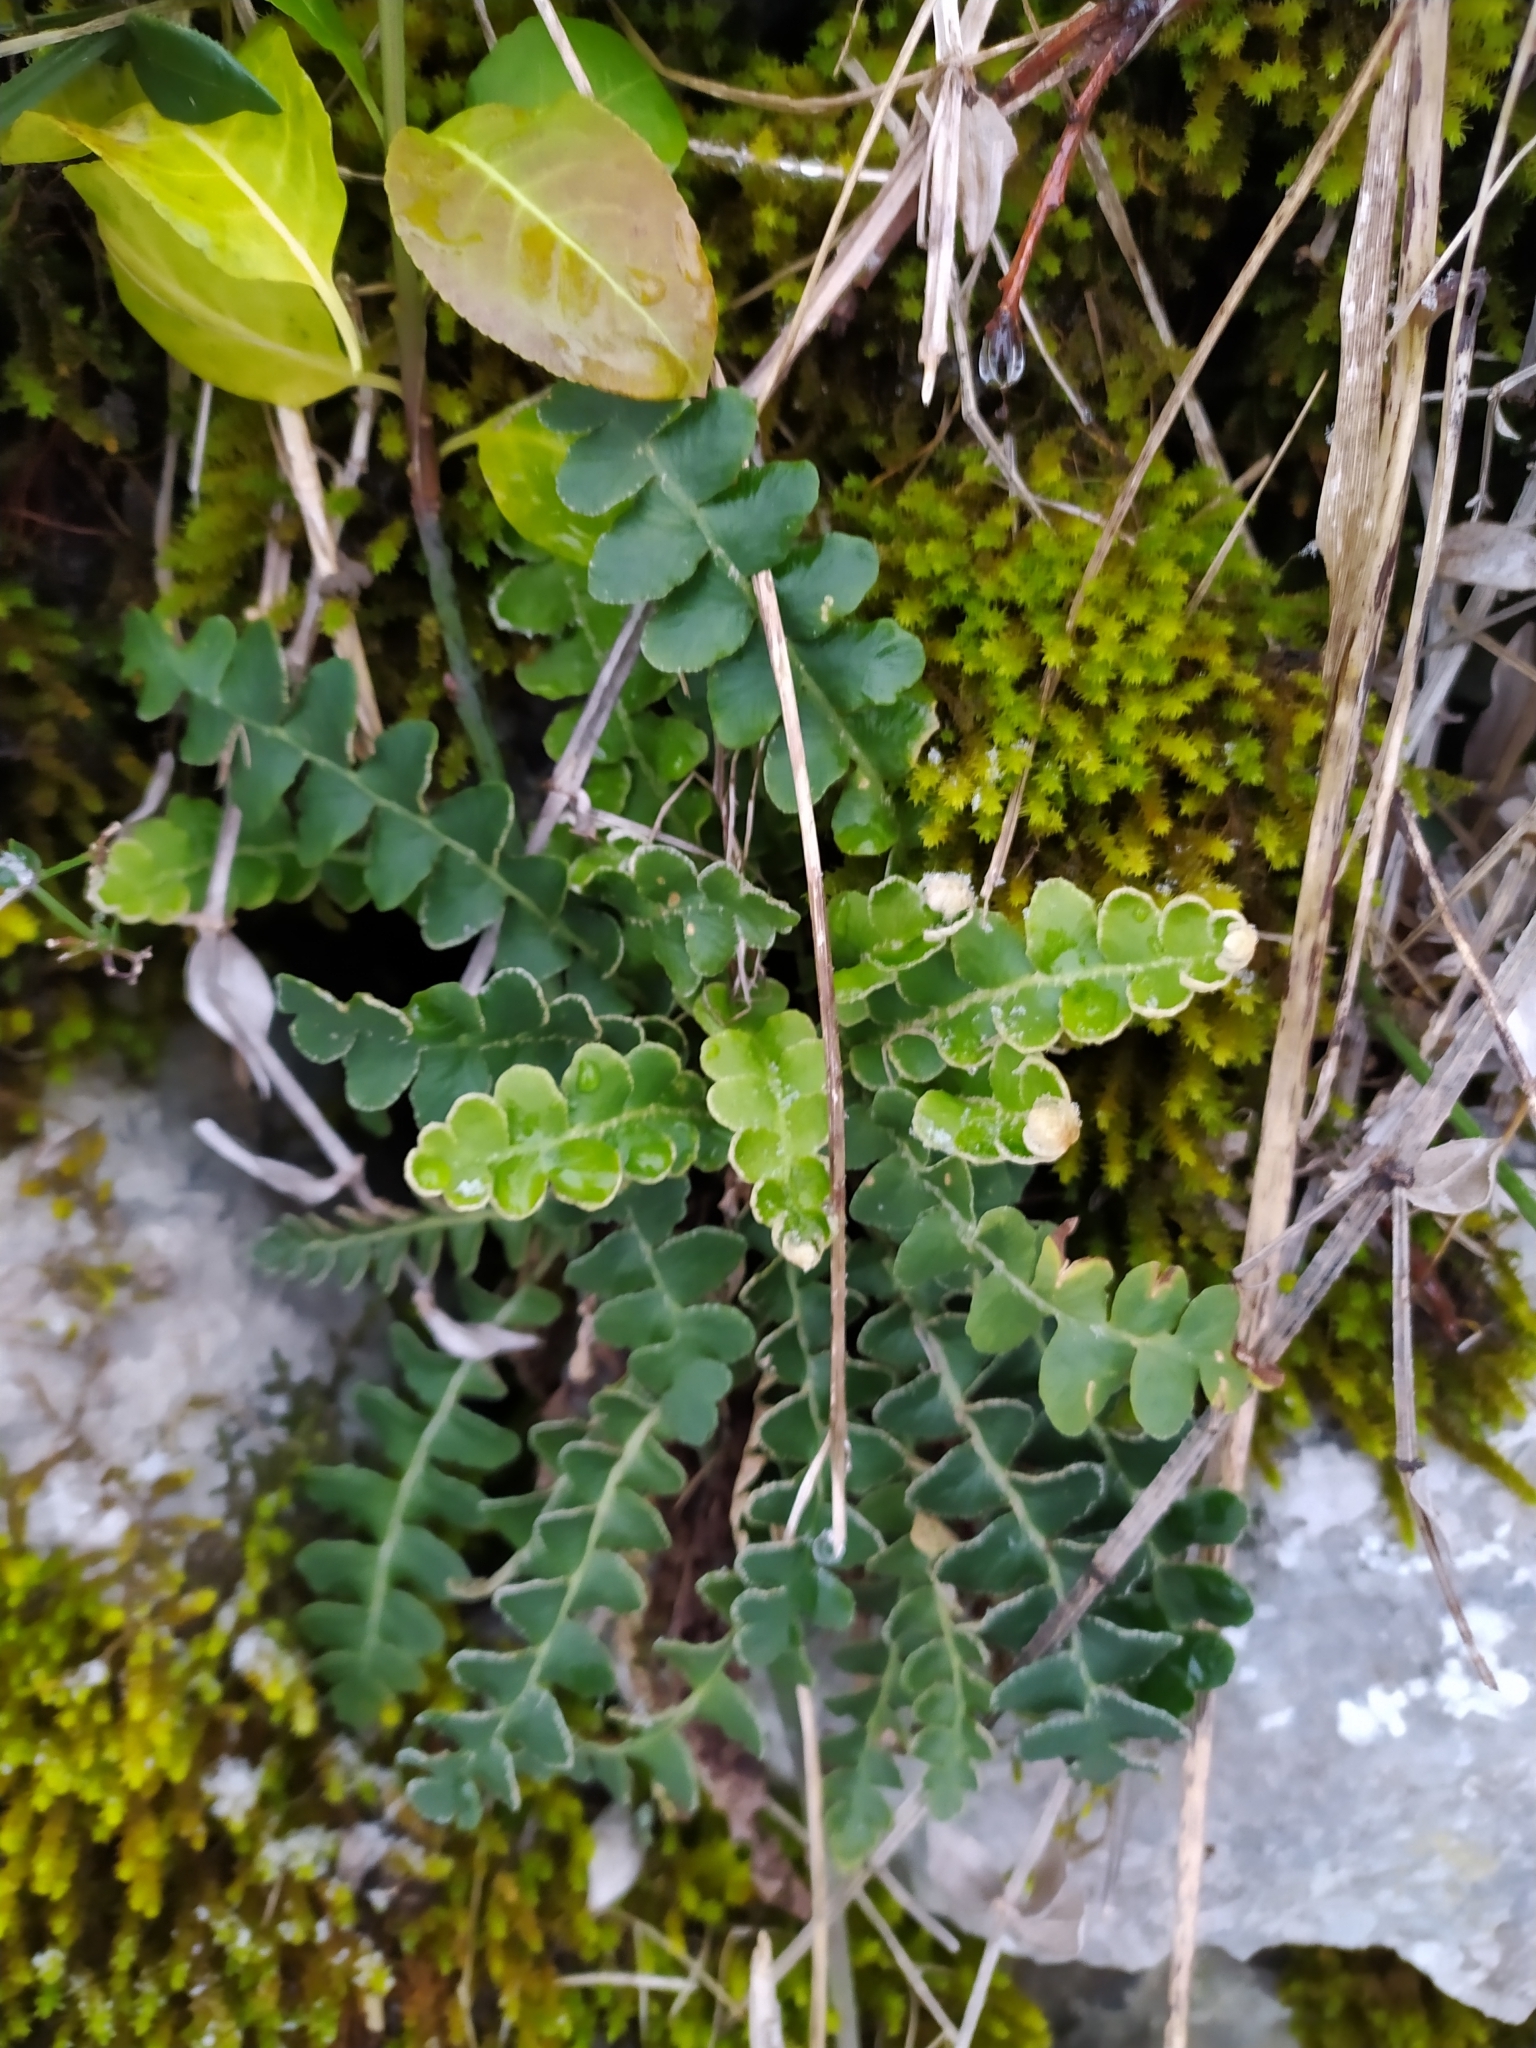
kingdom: Plantae
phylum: Tracheophyta
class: Polypodiopsida
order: Polypodiales
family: Aspleniaceae
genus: Asplenium
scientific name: Asplenium ceterach
